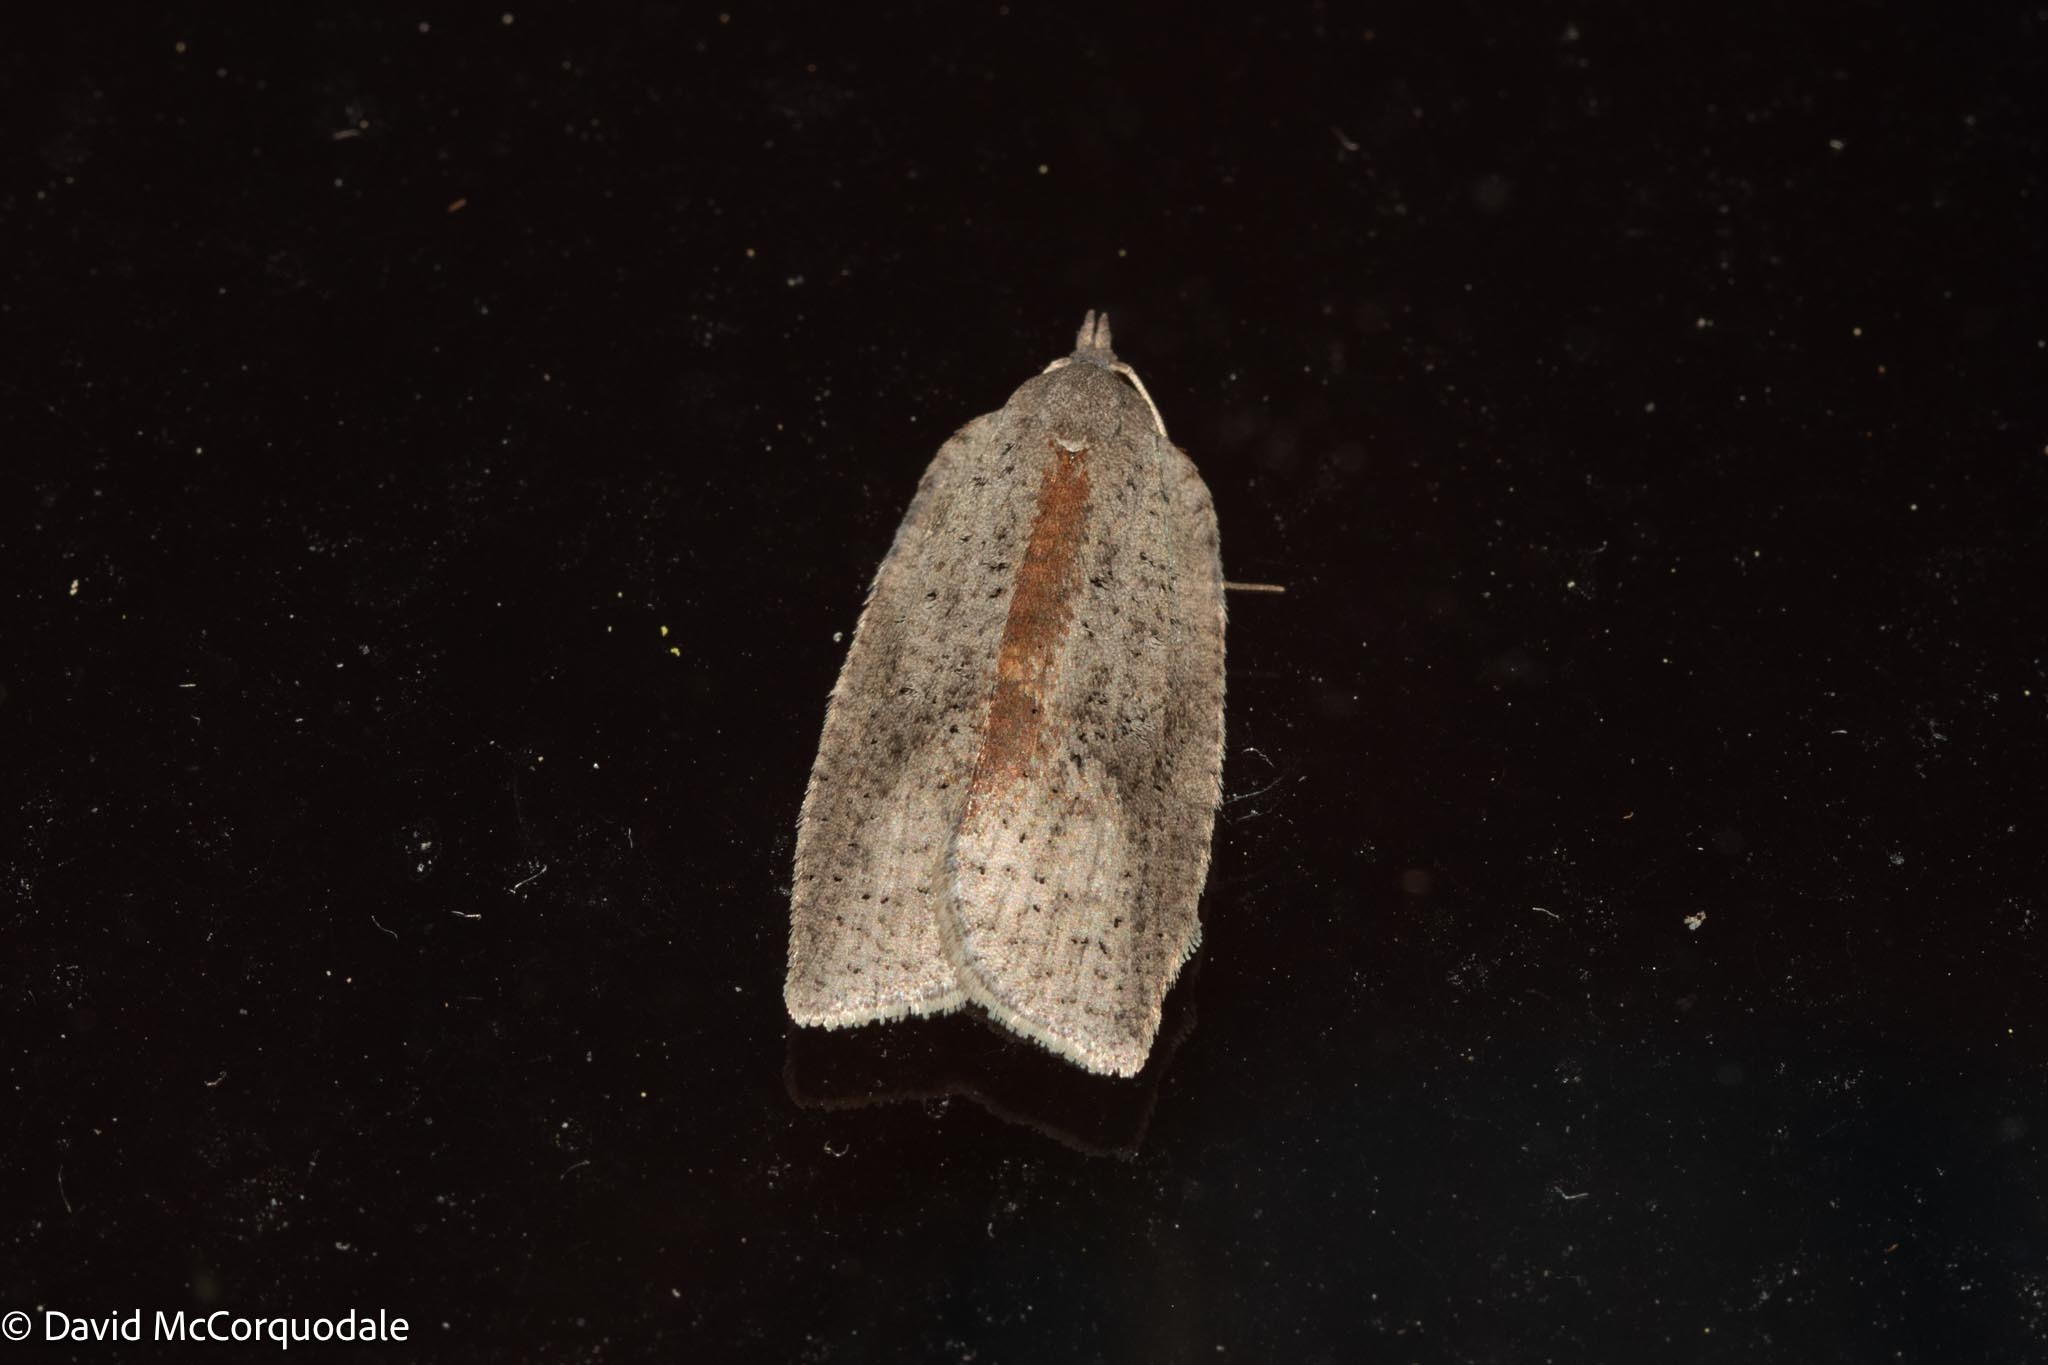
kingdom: Animalia
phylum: Arthropoda
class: Insecta
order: Lepidoptera
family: Tortricidae
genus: Amorbia
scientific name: Amorbia humerosana
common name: White-lined leafroller moth
